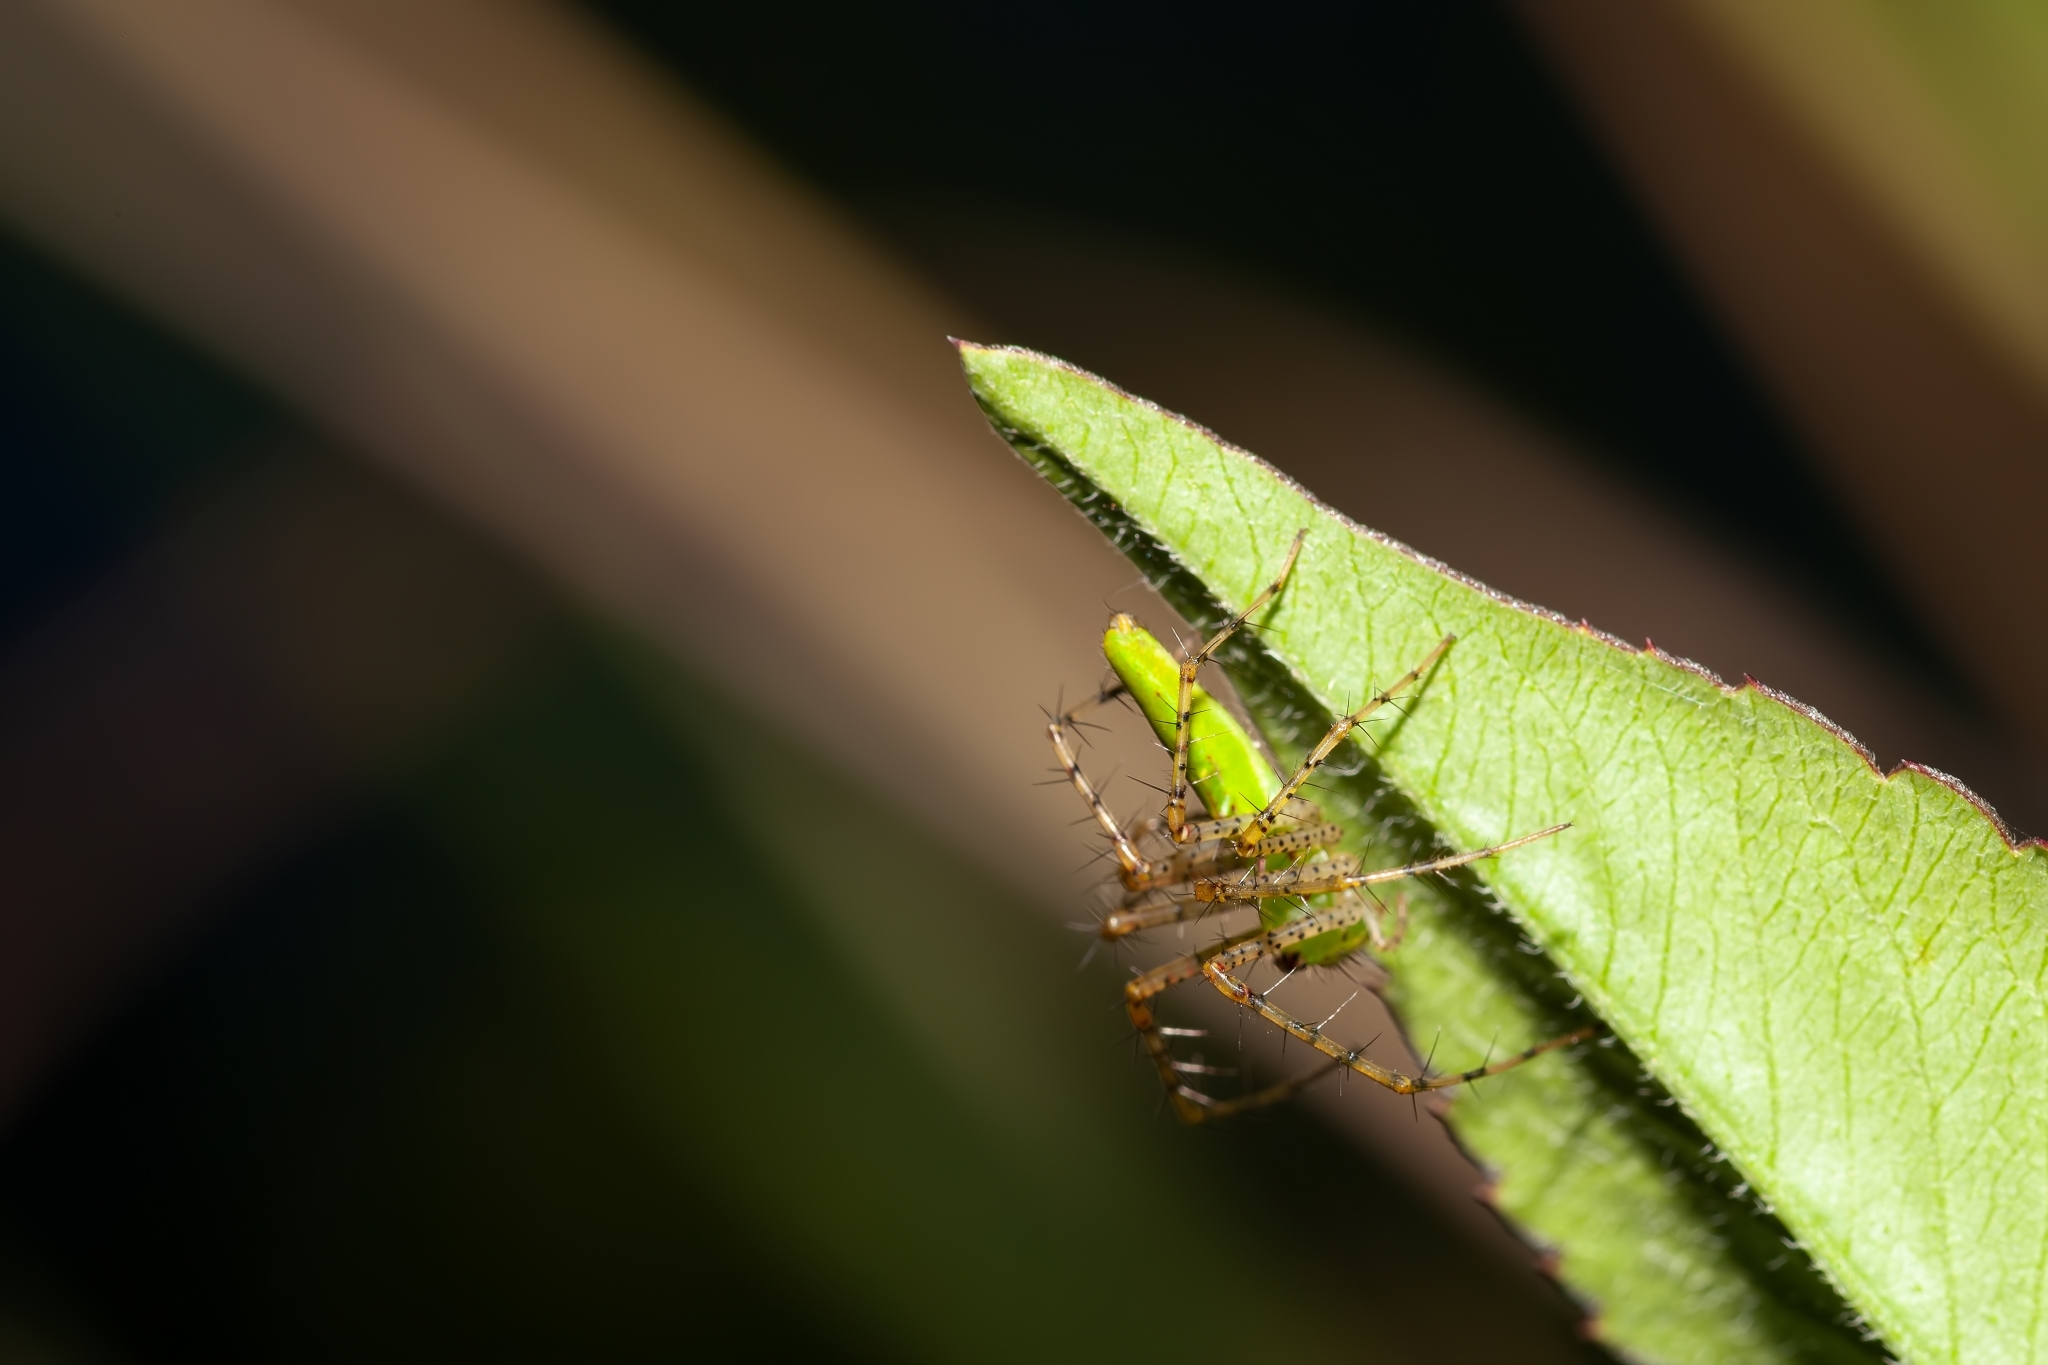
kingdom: Animalia
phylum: Arthropoda
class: Arachnida
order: Araneae
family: Oxyopidae
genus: Peucetia
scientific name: Peucetia viridans
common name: Lynx spiders
